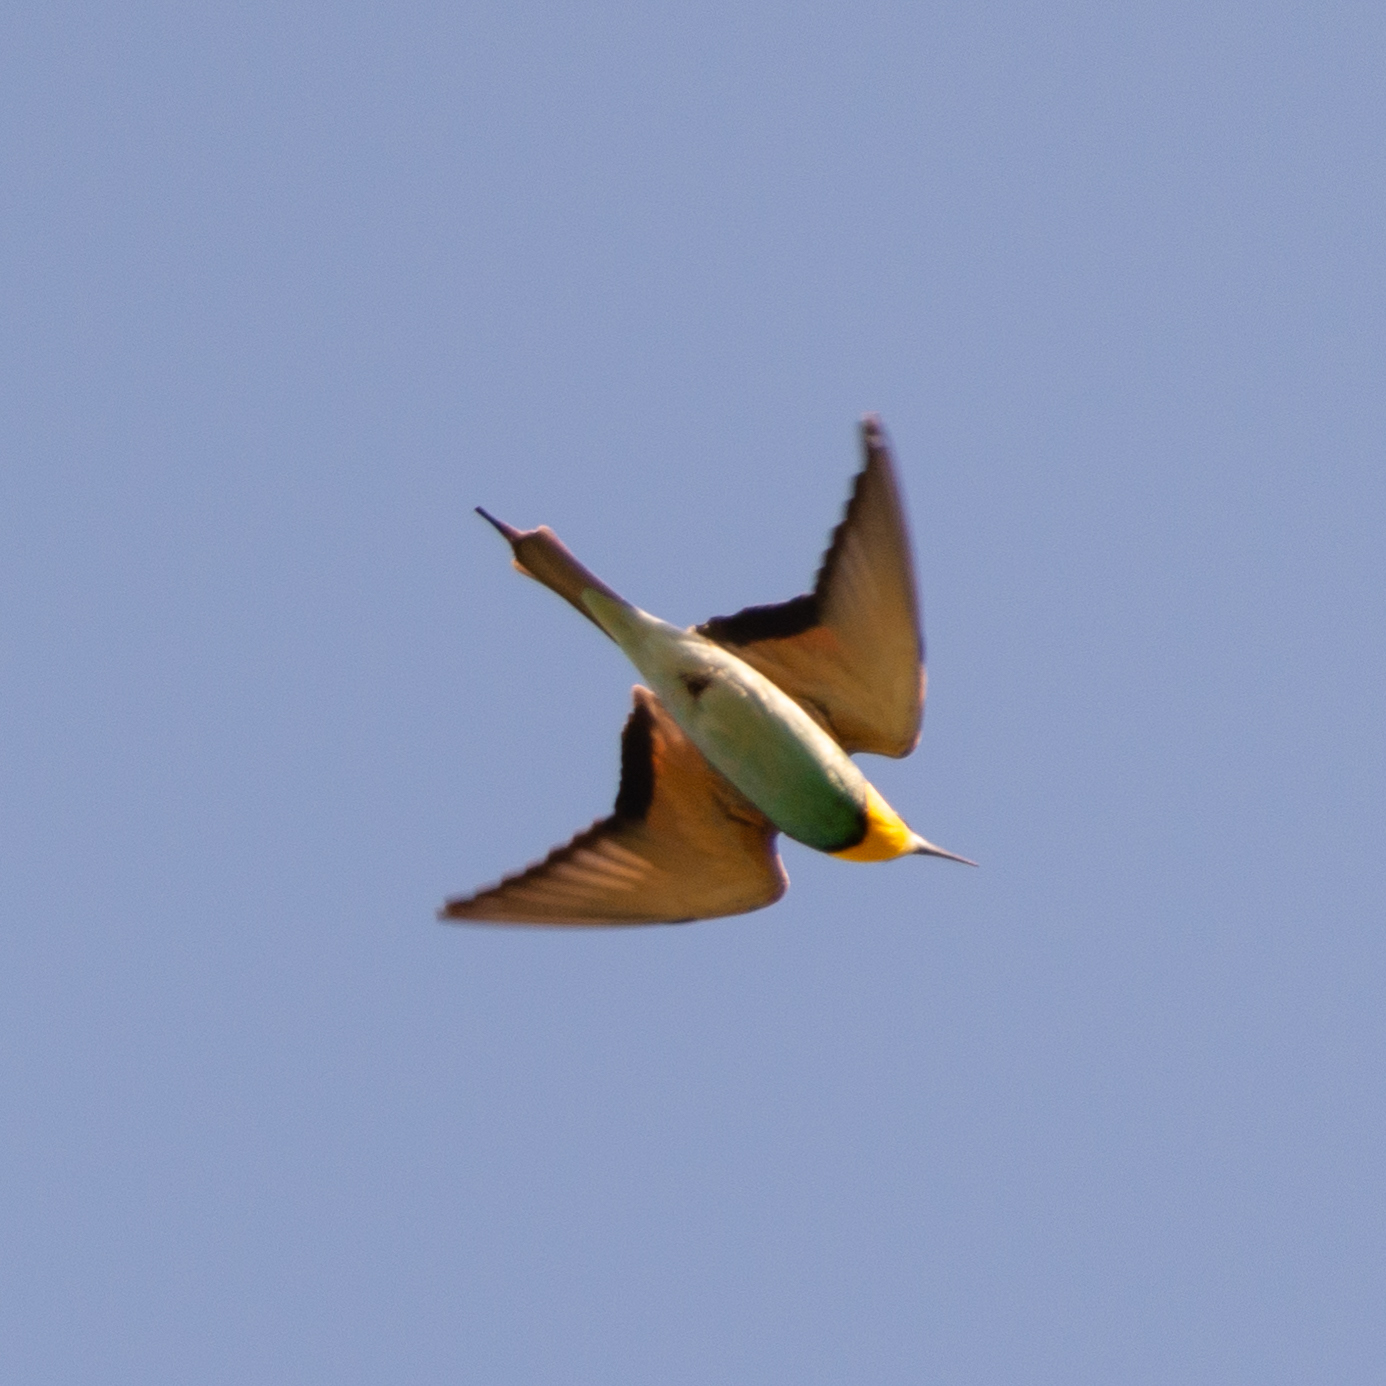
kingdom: Animalia
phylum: Chordata
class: Aves
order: Coraciiformes
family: Meropidae
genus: Merops
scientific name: Merops apiaster
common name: European bee-eater
